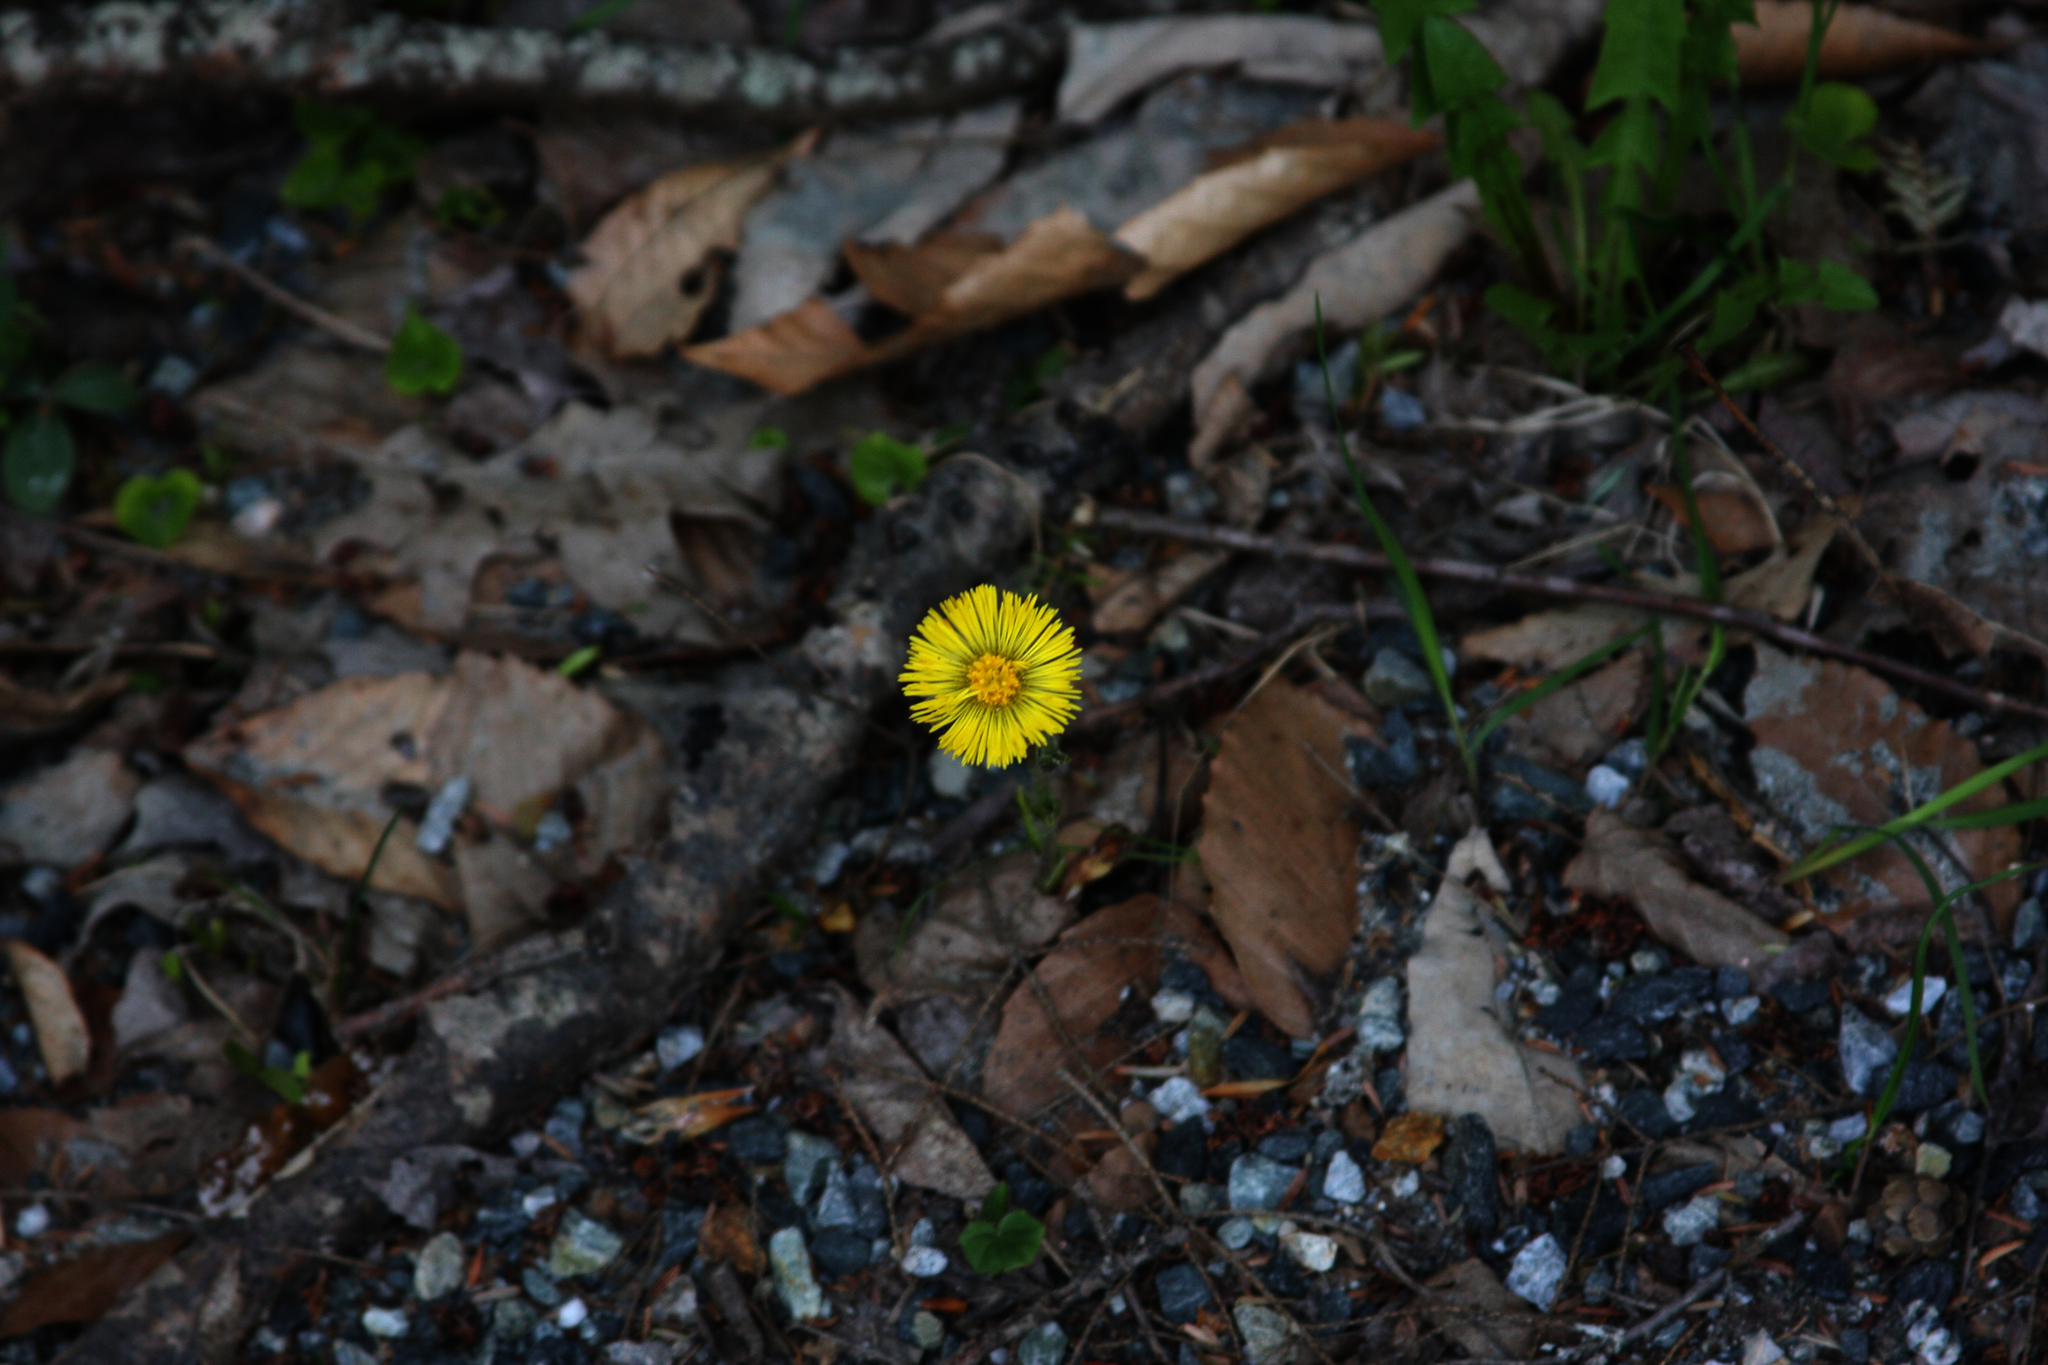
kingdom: Plantae
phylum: Tracheophyta
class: Magnoliopsida
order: Asterales
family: Asteraceae
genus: Tussilago
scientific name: Tussilago farfara
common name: Coltsfoot
